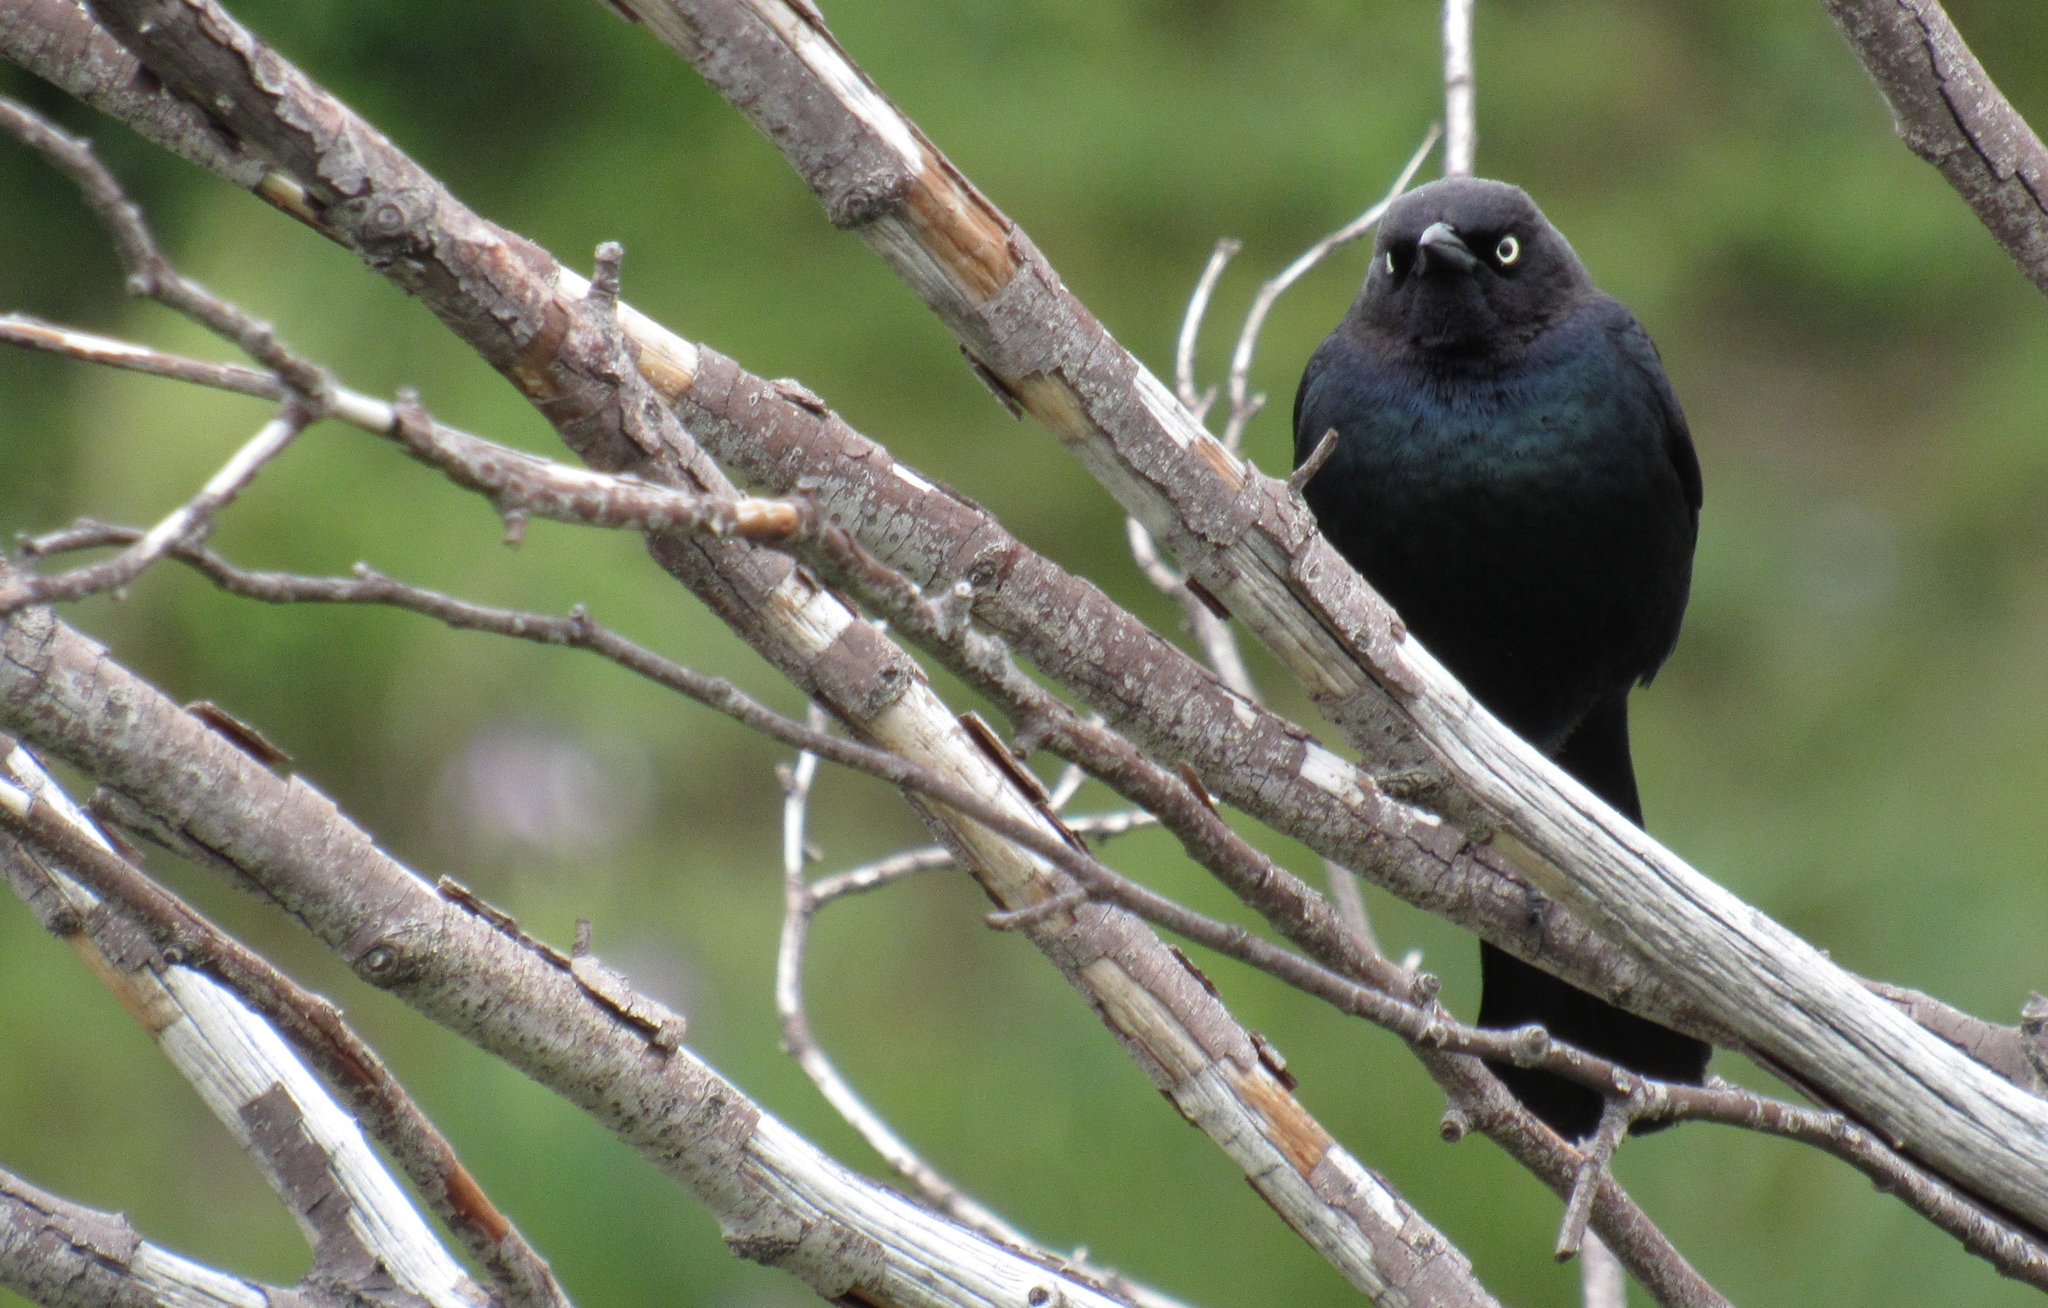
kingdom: Animalia
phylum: Chordata
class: Aves
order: Passeriformes
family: Icteridae
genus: Euphagus
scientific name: Euphagus cyanocephalus
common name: Brewer's blackbird
